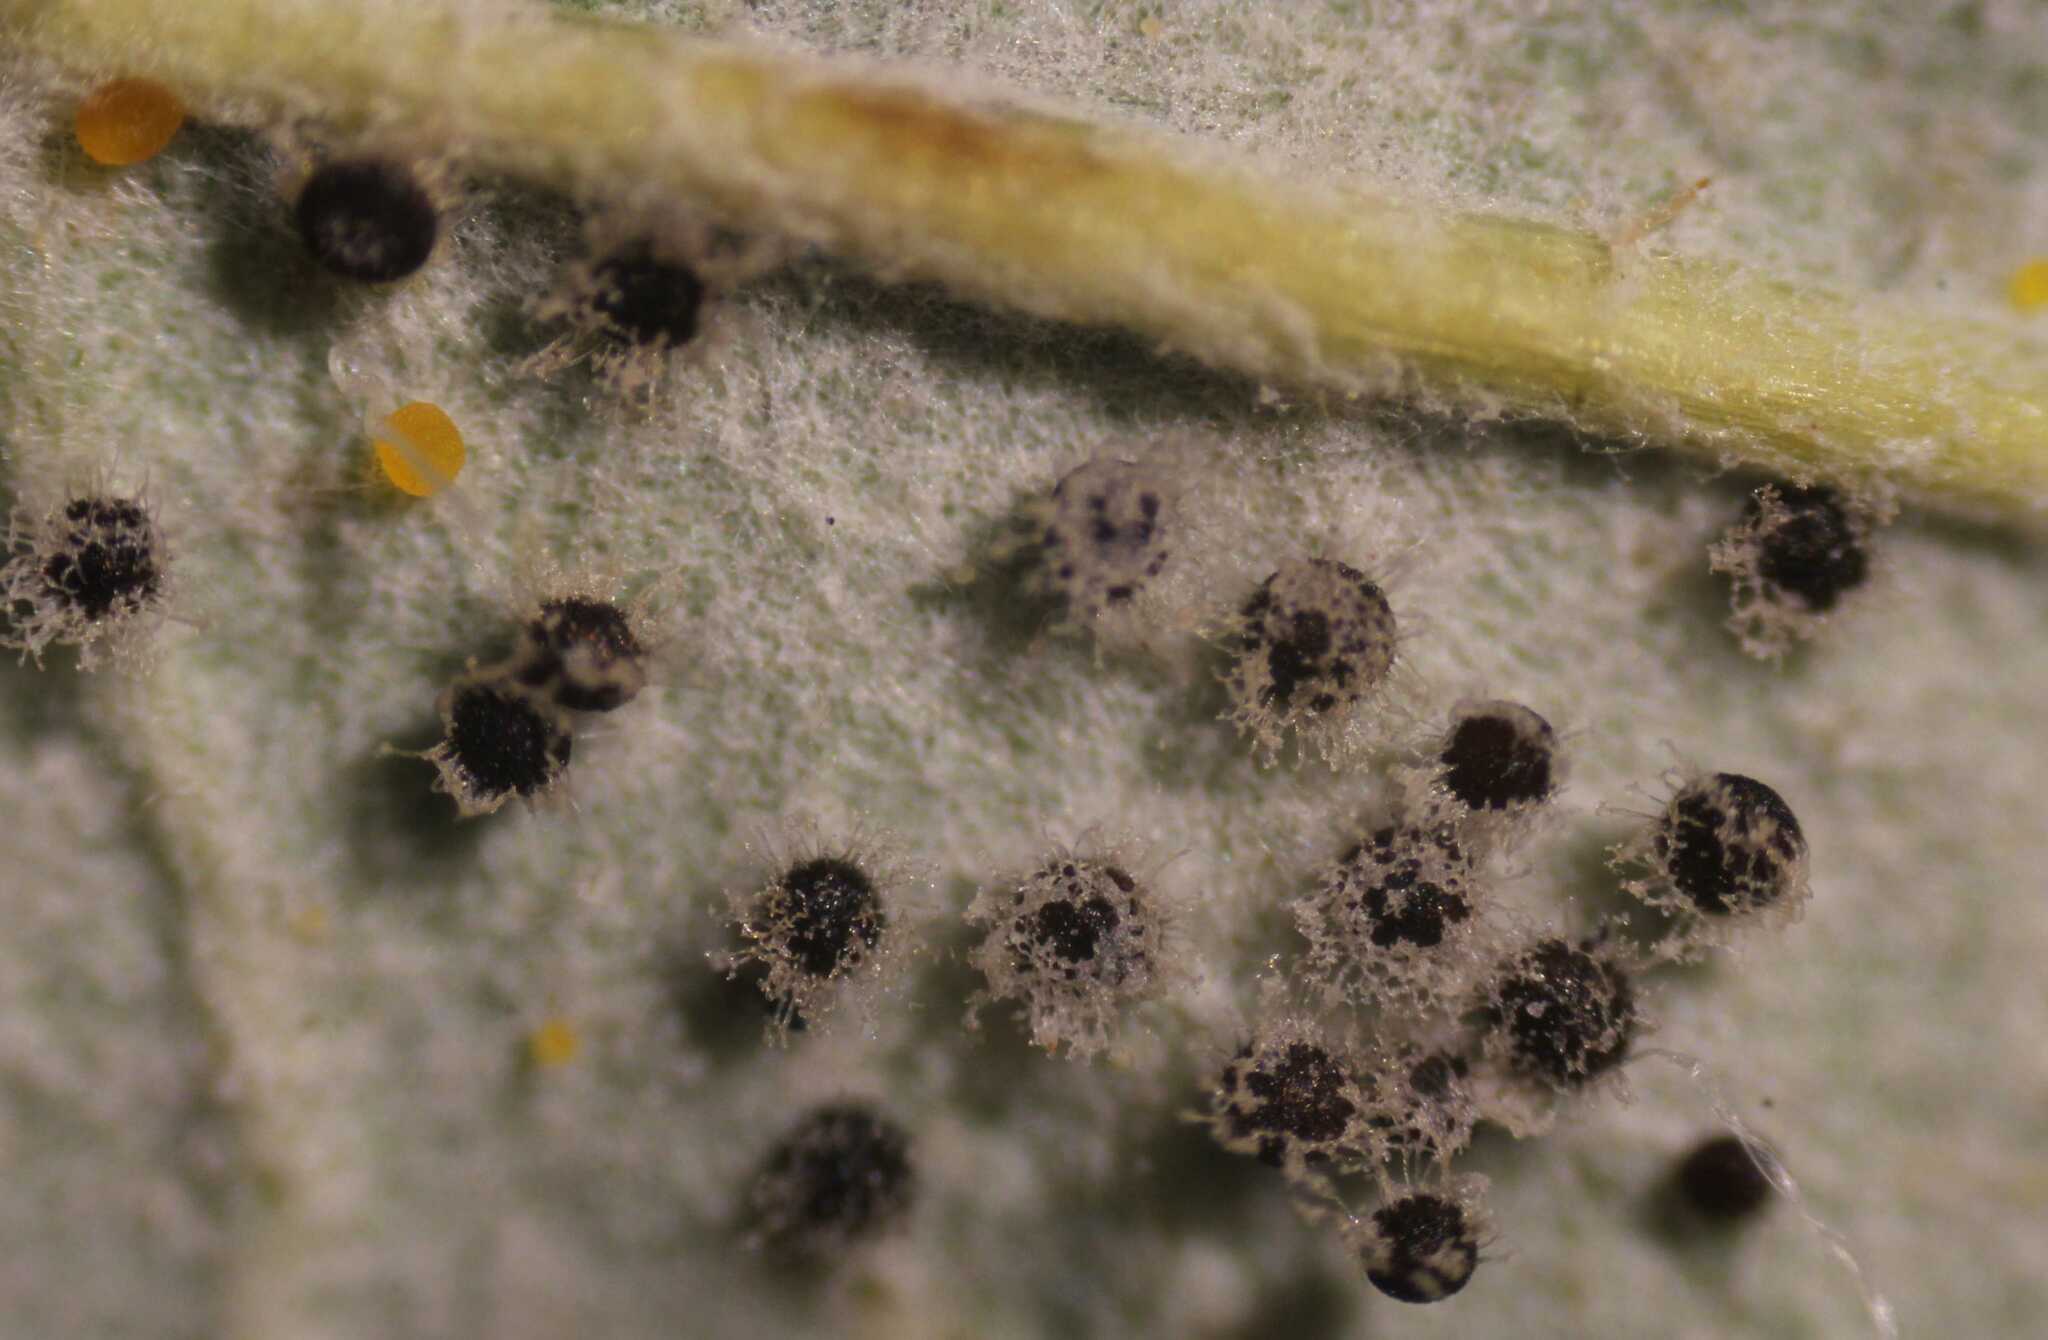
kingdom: Fungi
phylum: Ascomycota
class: Leotiomycetes
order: Helotiales
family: Erysiphaceae
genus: Sawadaea
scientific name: Sawadaea bicornis
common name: Maple mildew
